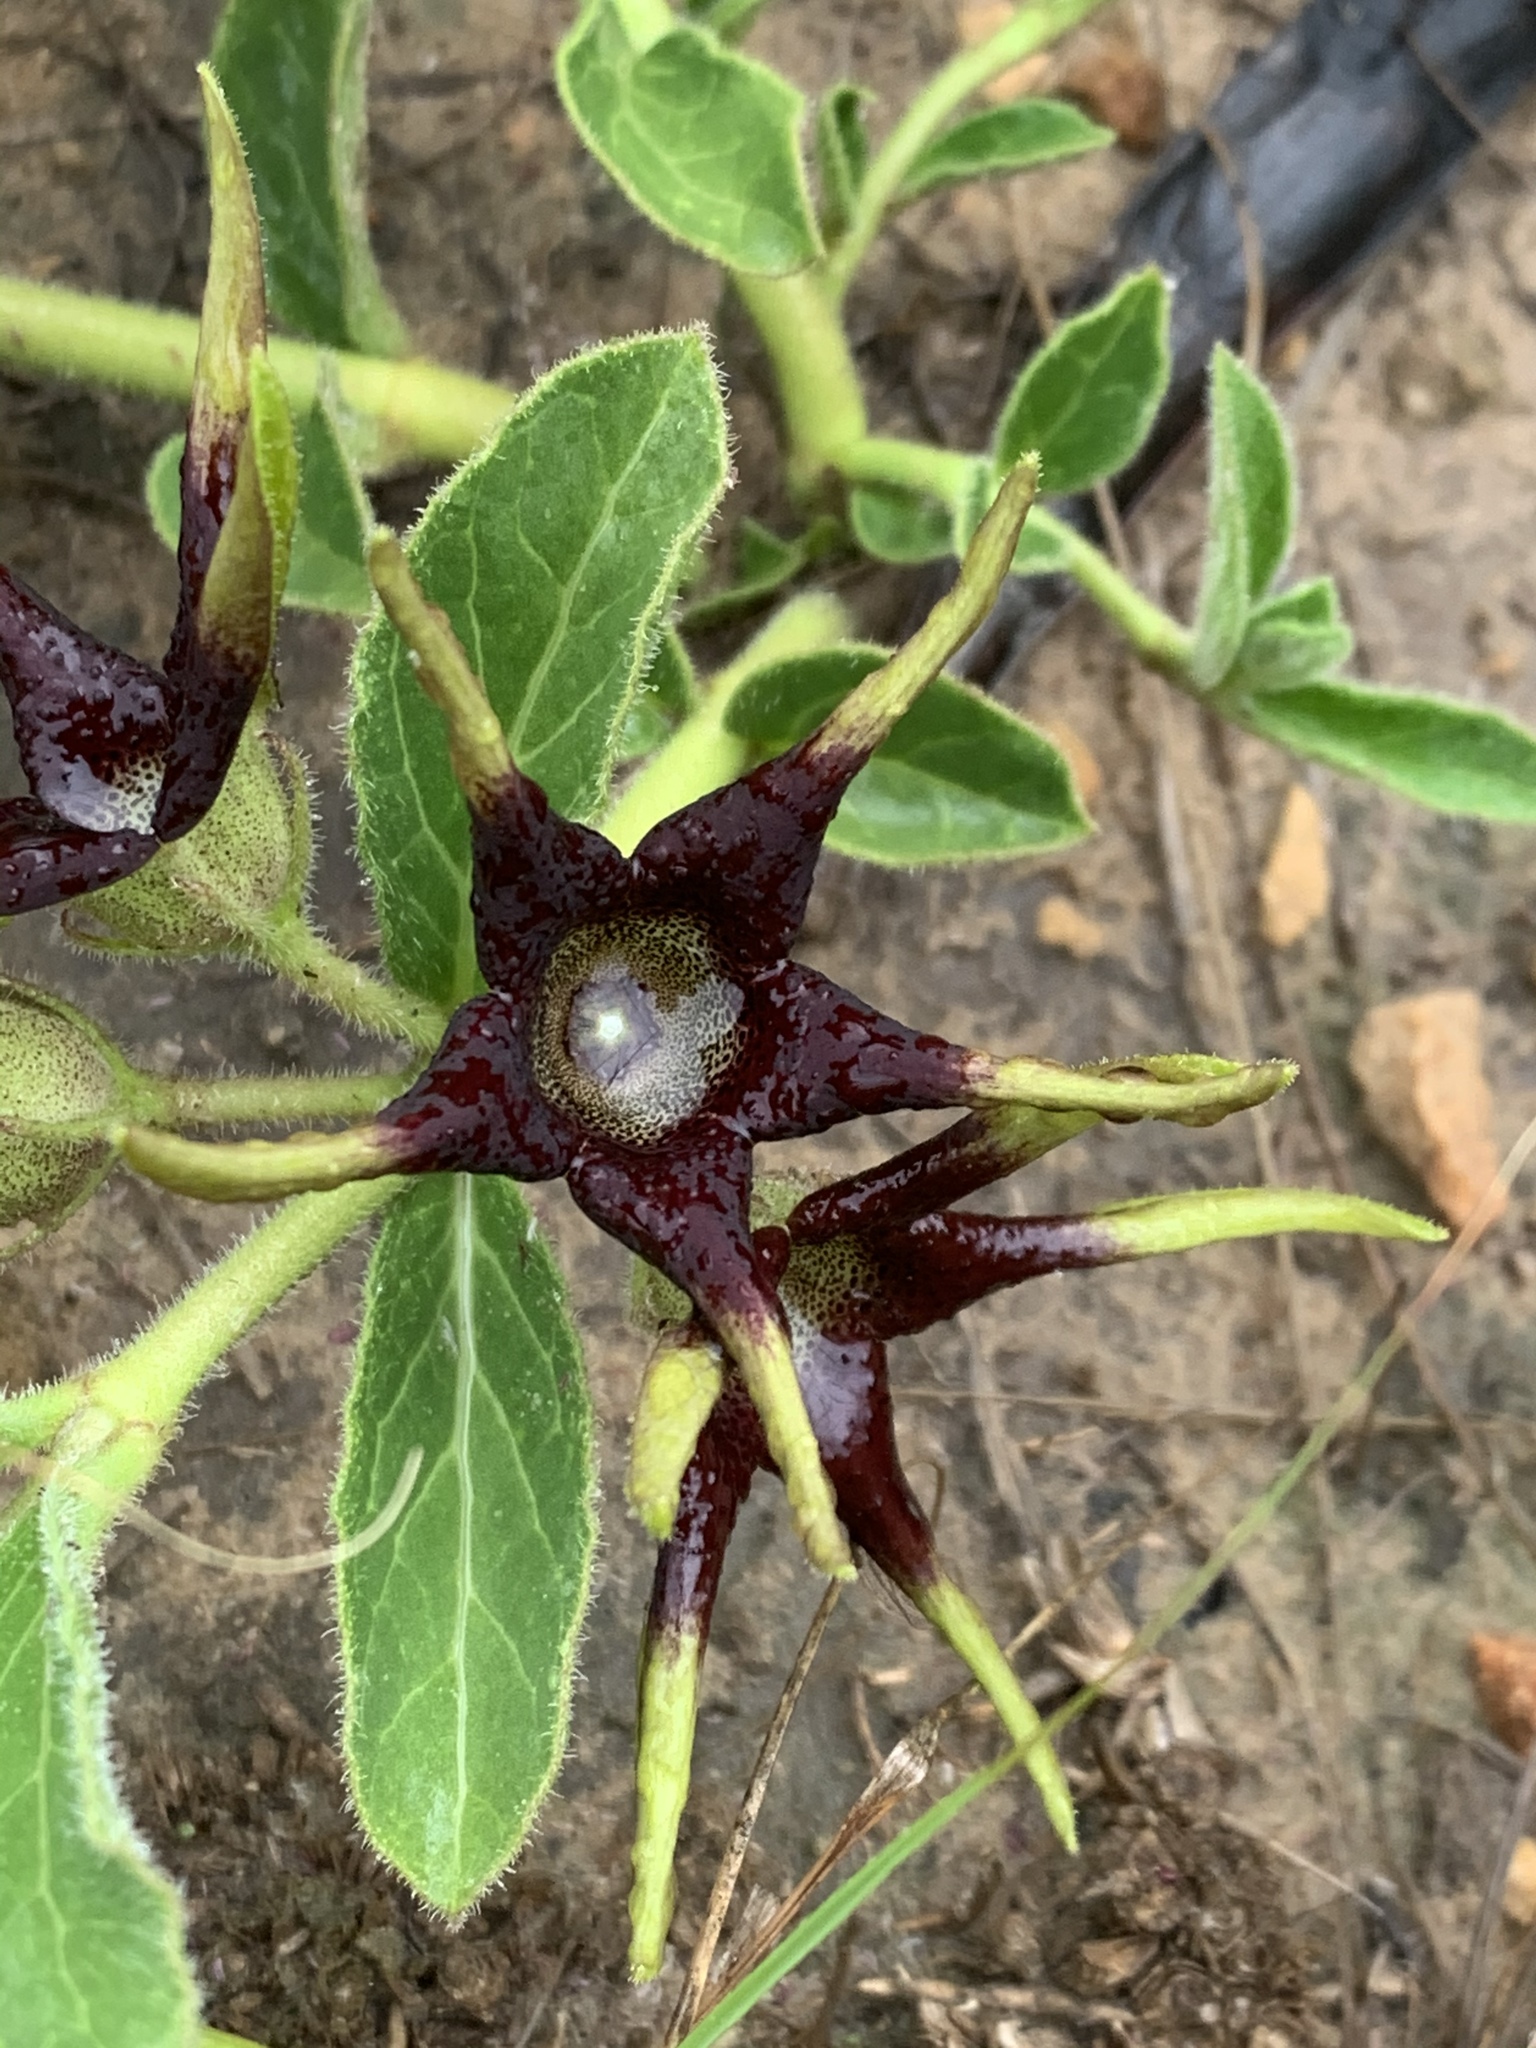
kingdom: Plantae
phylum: Tracheophyta
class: Magnoliopsida
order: Gentianales
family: Apocynaceae
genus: Ceropegia
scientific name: Ceropegia rehmannii
